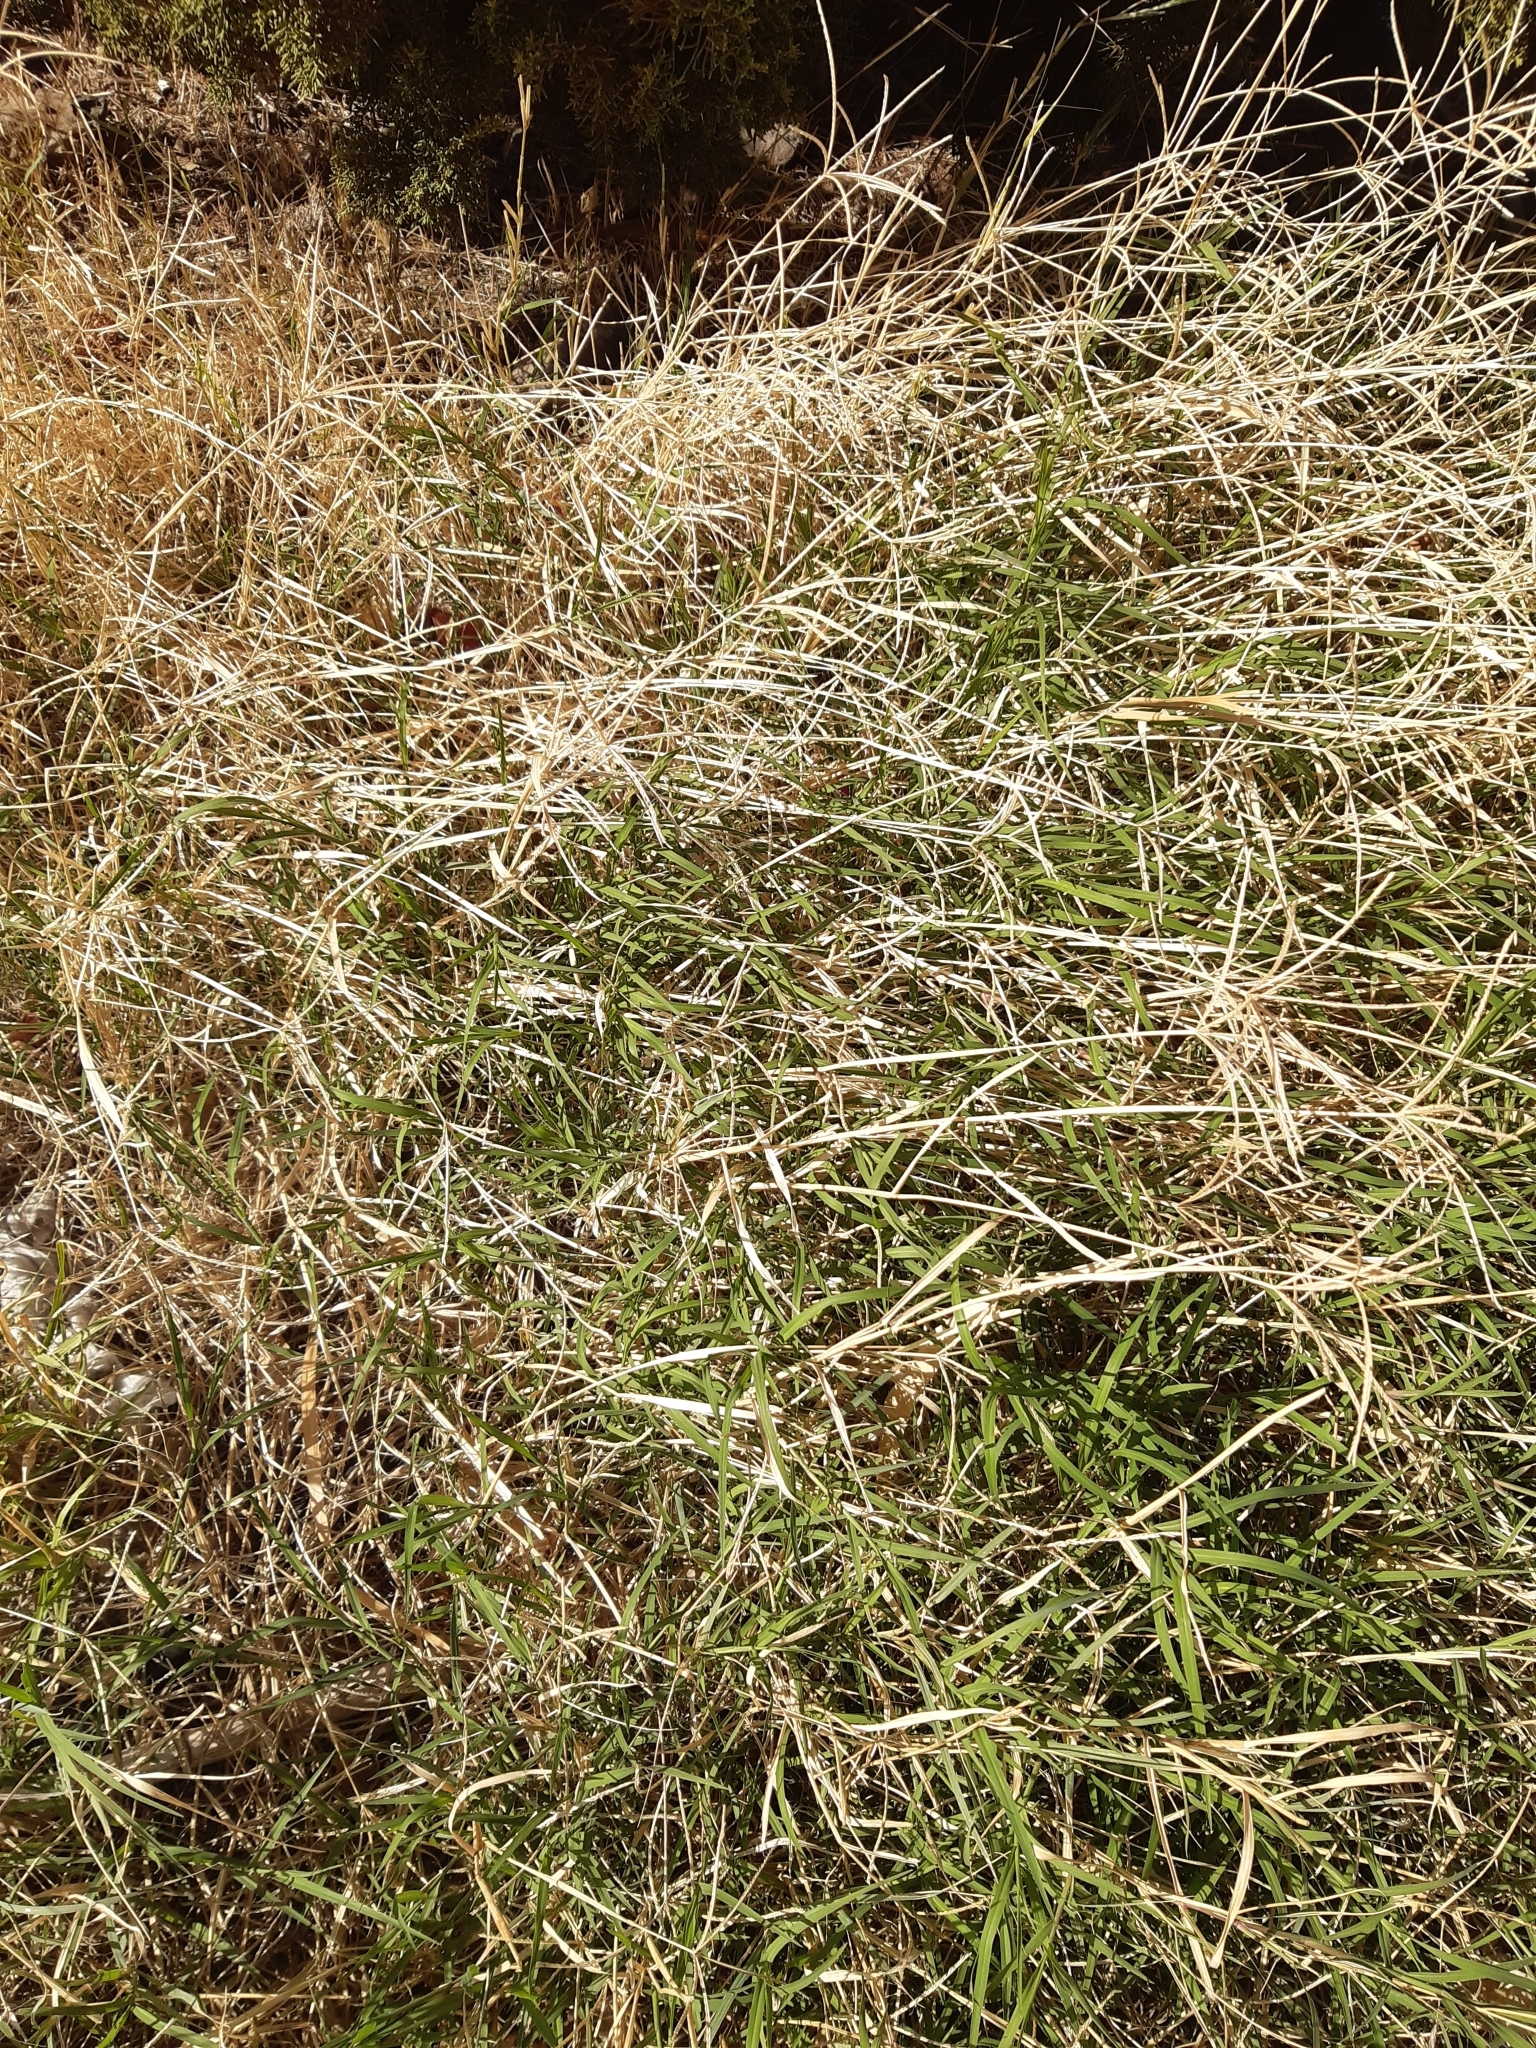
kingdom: Plantae
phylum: Tracheophyta
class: Liliopsida
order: Poales
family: Poaceae
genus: Cynodon
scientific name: Cynodon dactylon
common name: Bermuda grass
